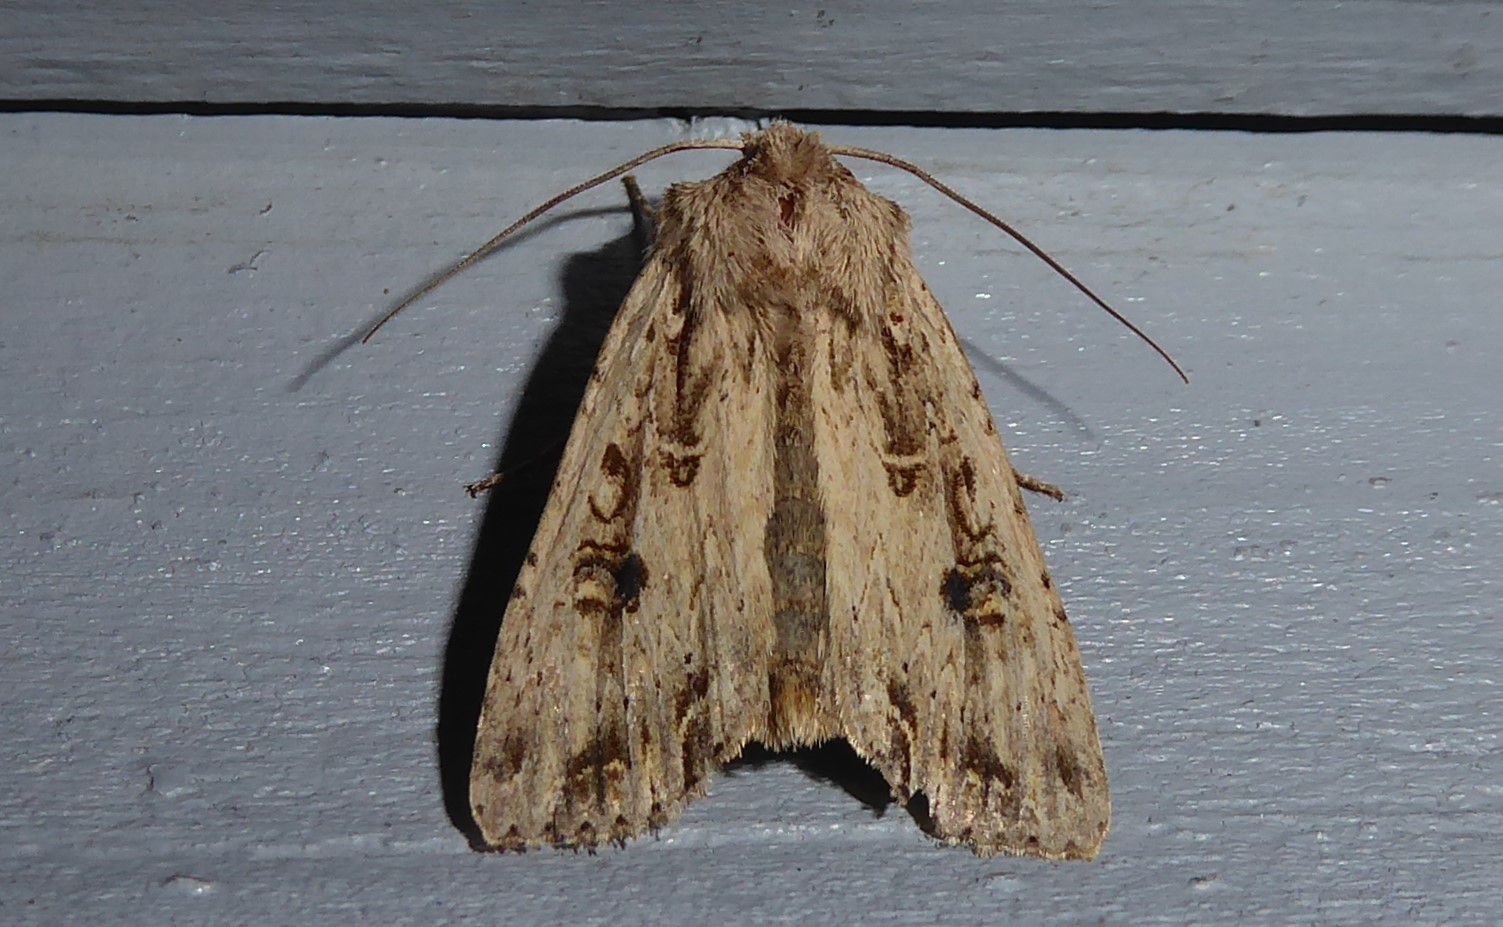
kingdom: Animalia
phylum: Arthropoda
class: Insecta
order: Lepidoptera
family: Noctuidae
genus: Ichneutica
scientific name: Ichneutica lignana
